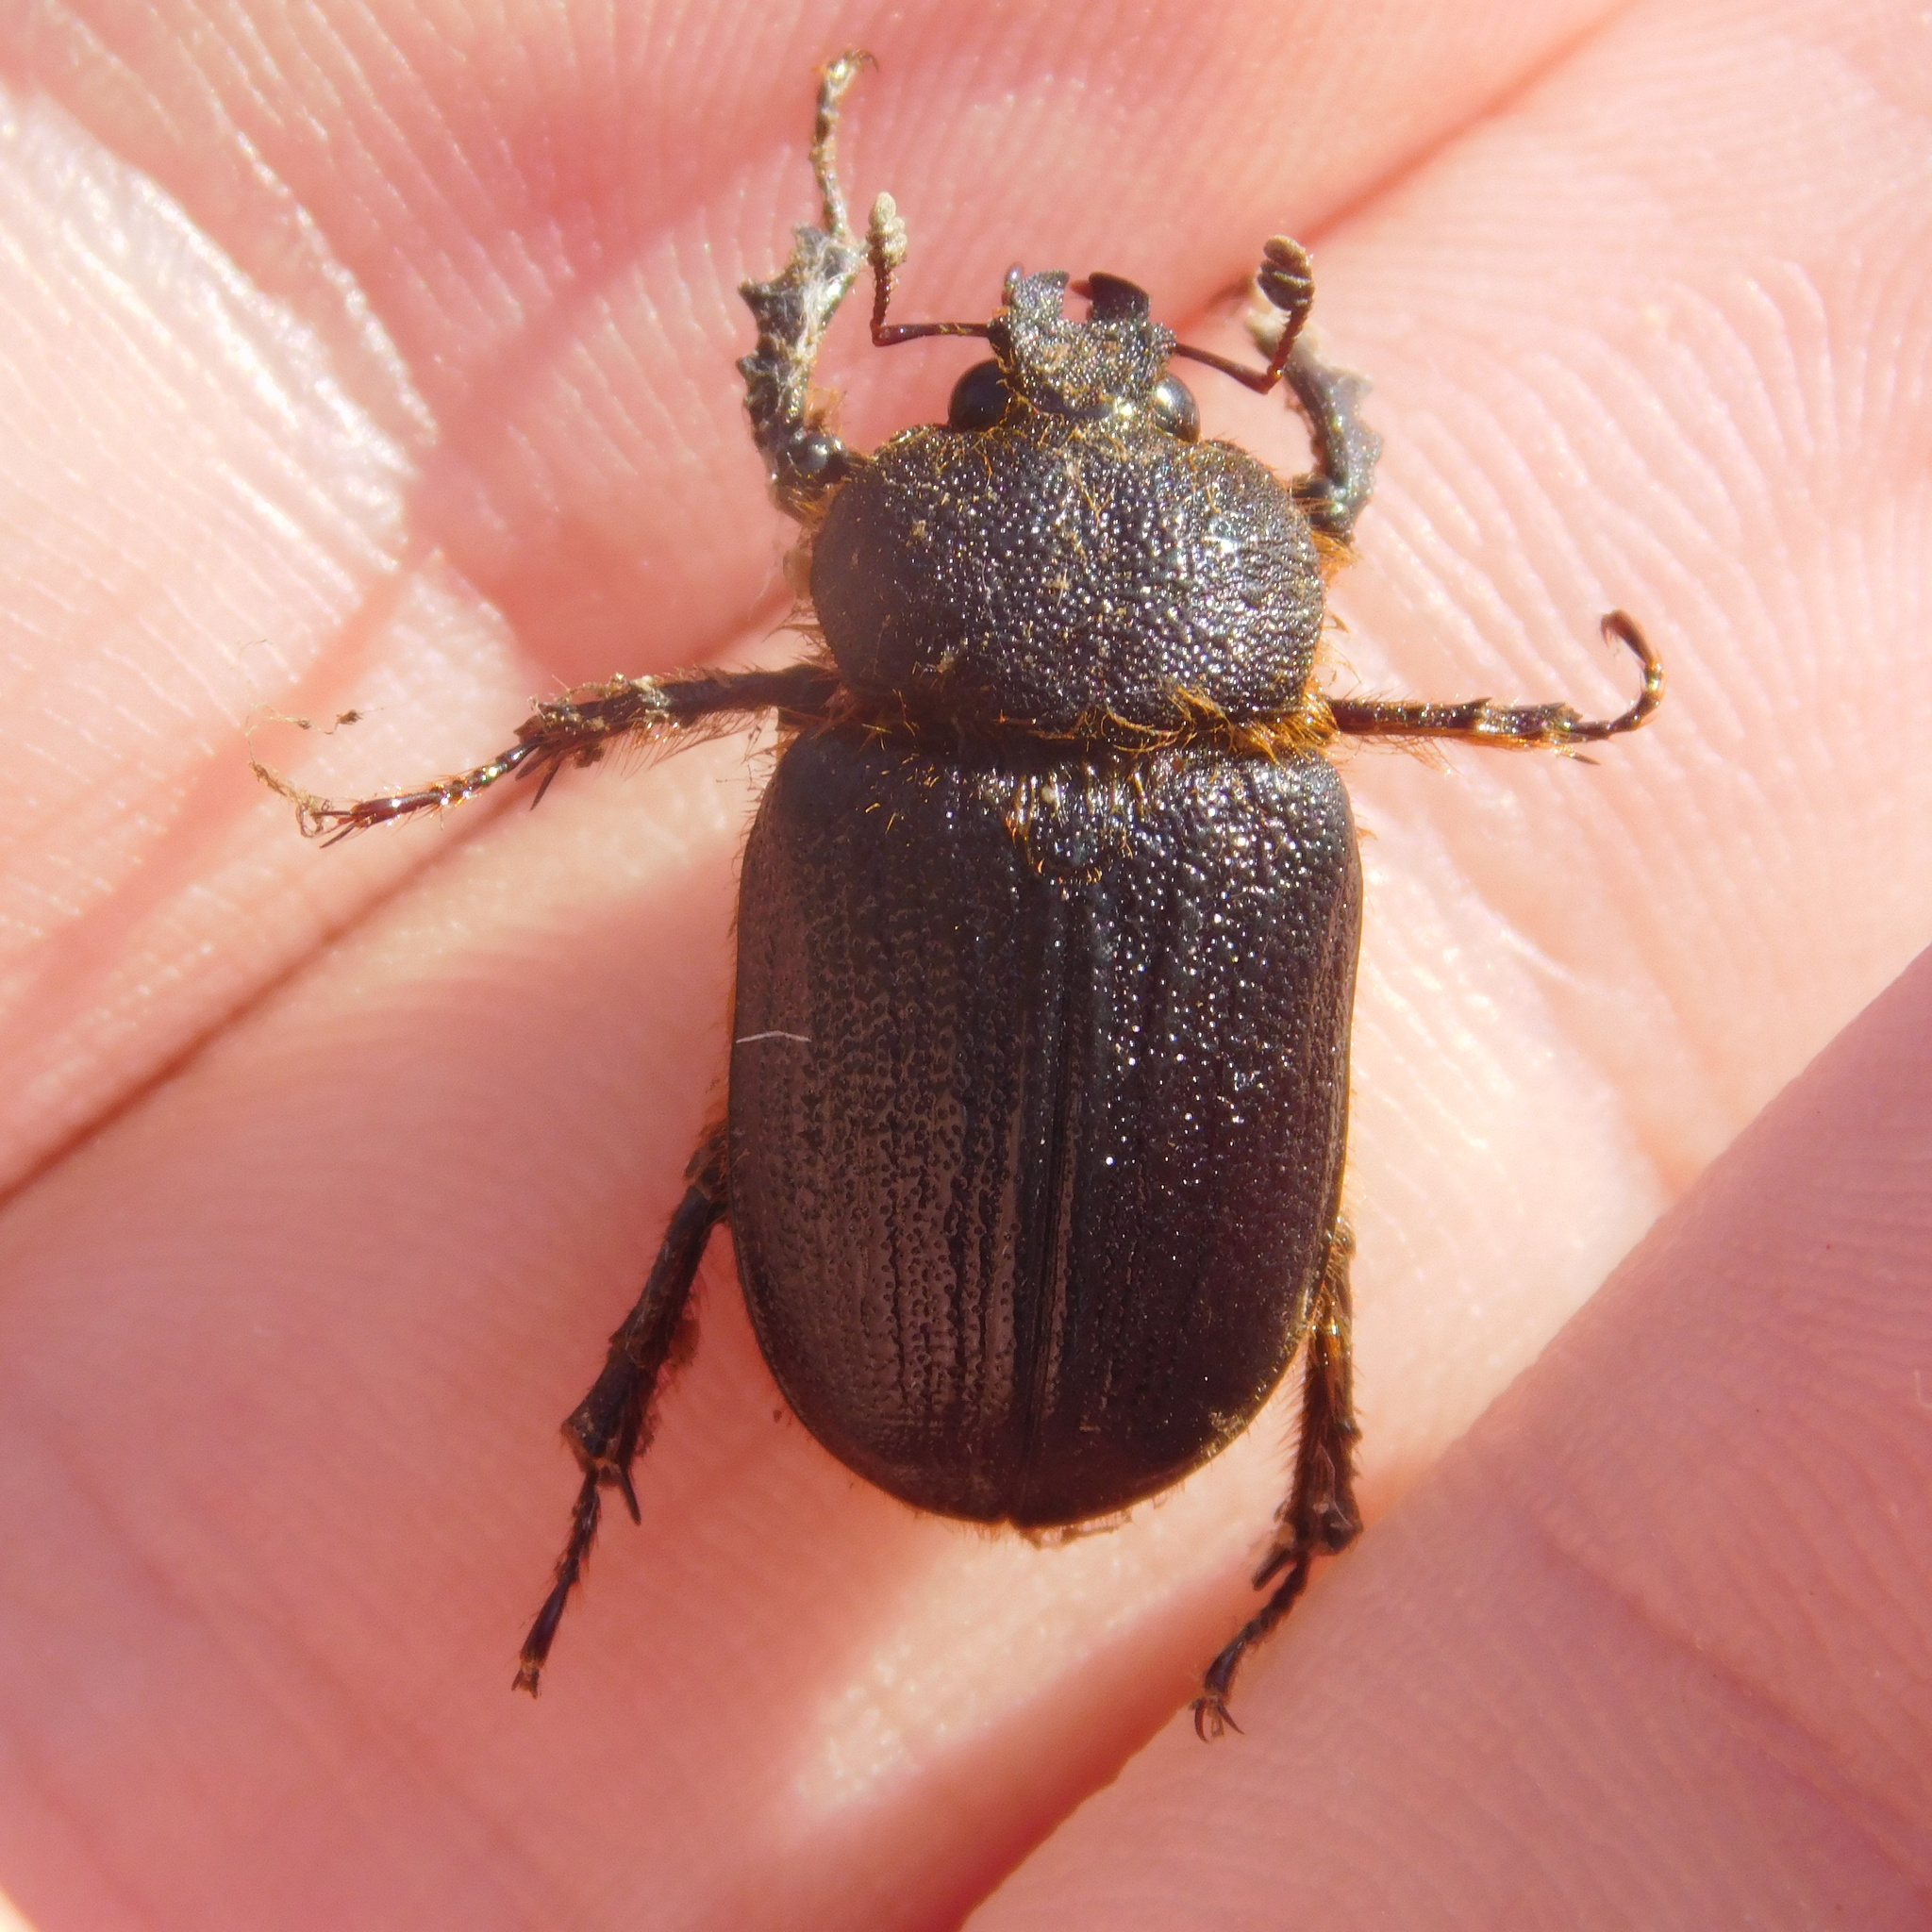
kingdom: Animalia
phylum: Arthropoda
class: Insecta
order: Coleoptera
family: Lucanidae
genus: Dendroblax
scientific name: Dendroblax earlii
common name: Earl's stag beetle
